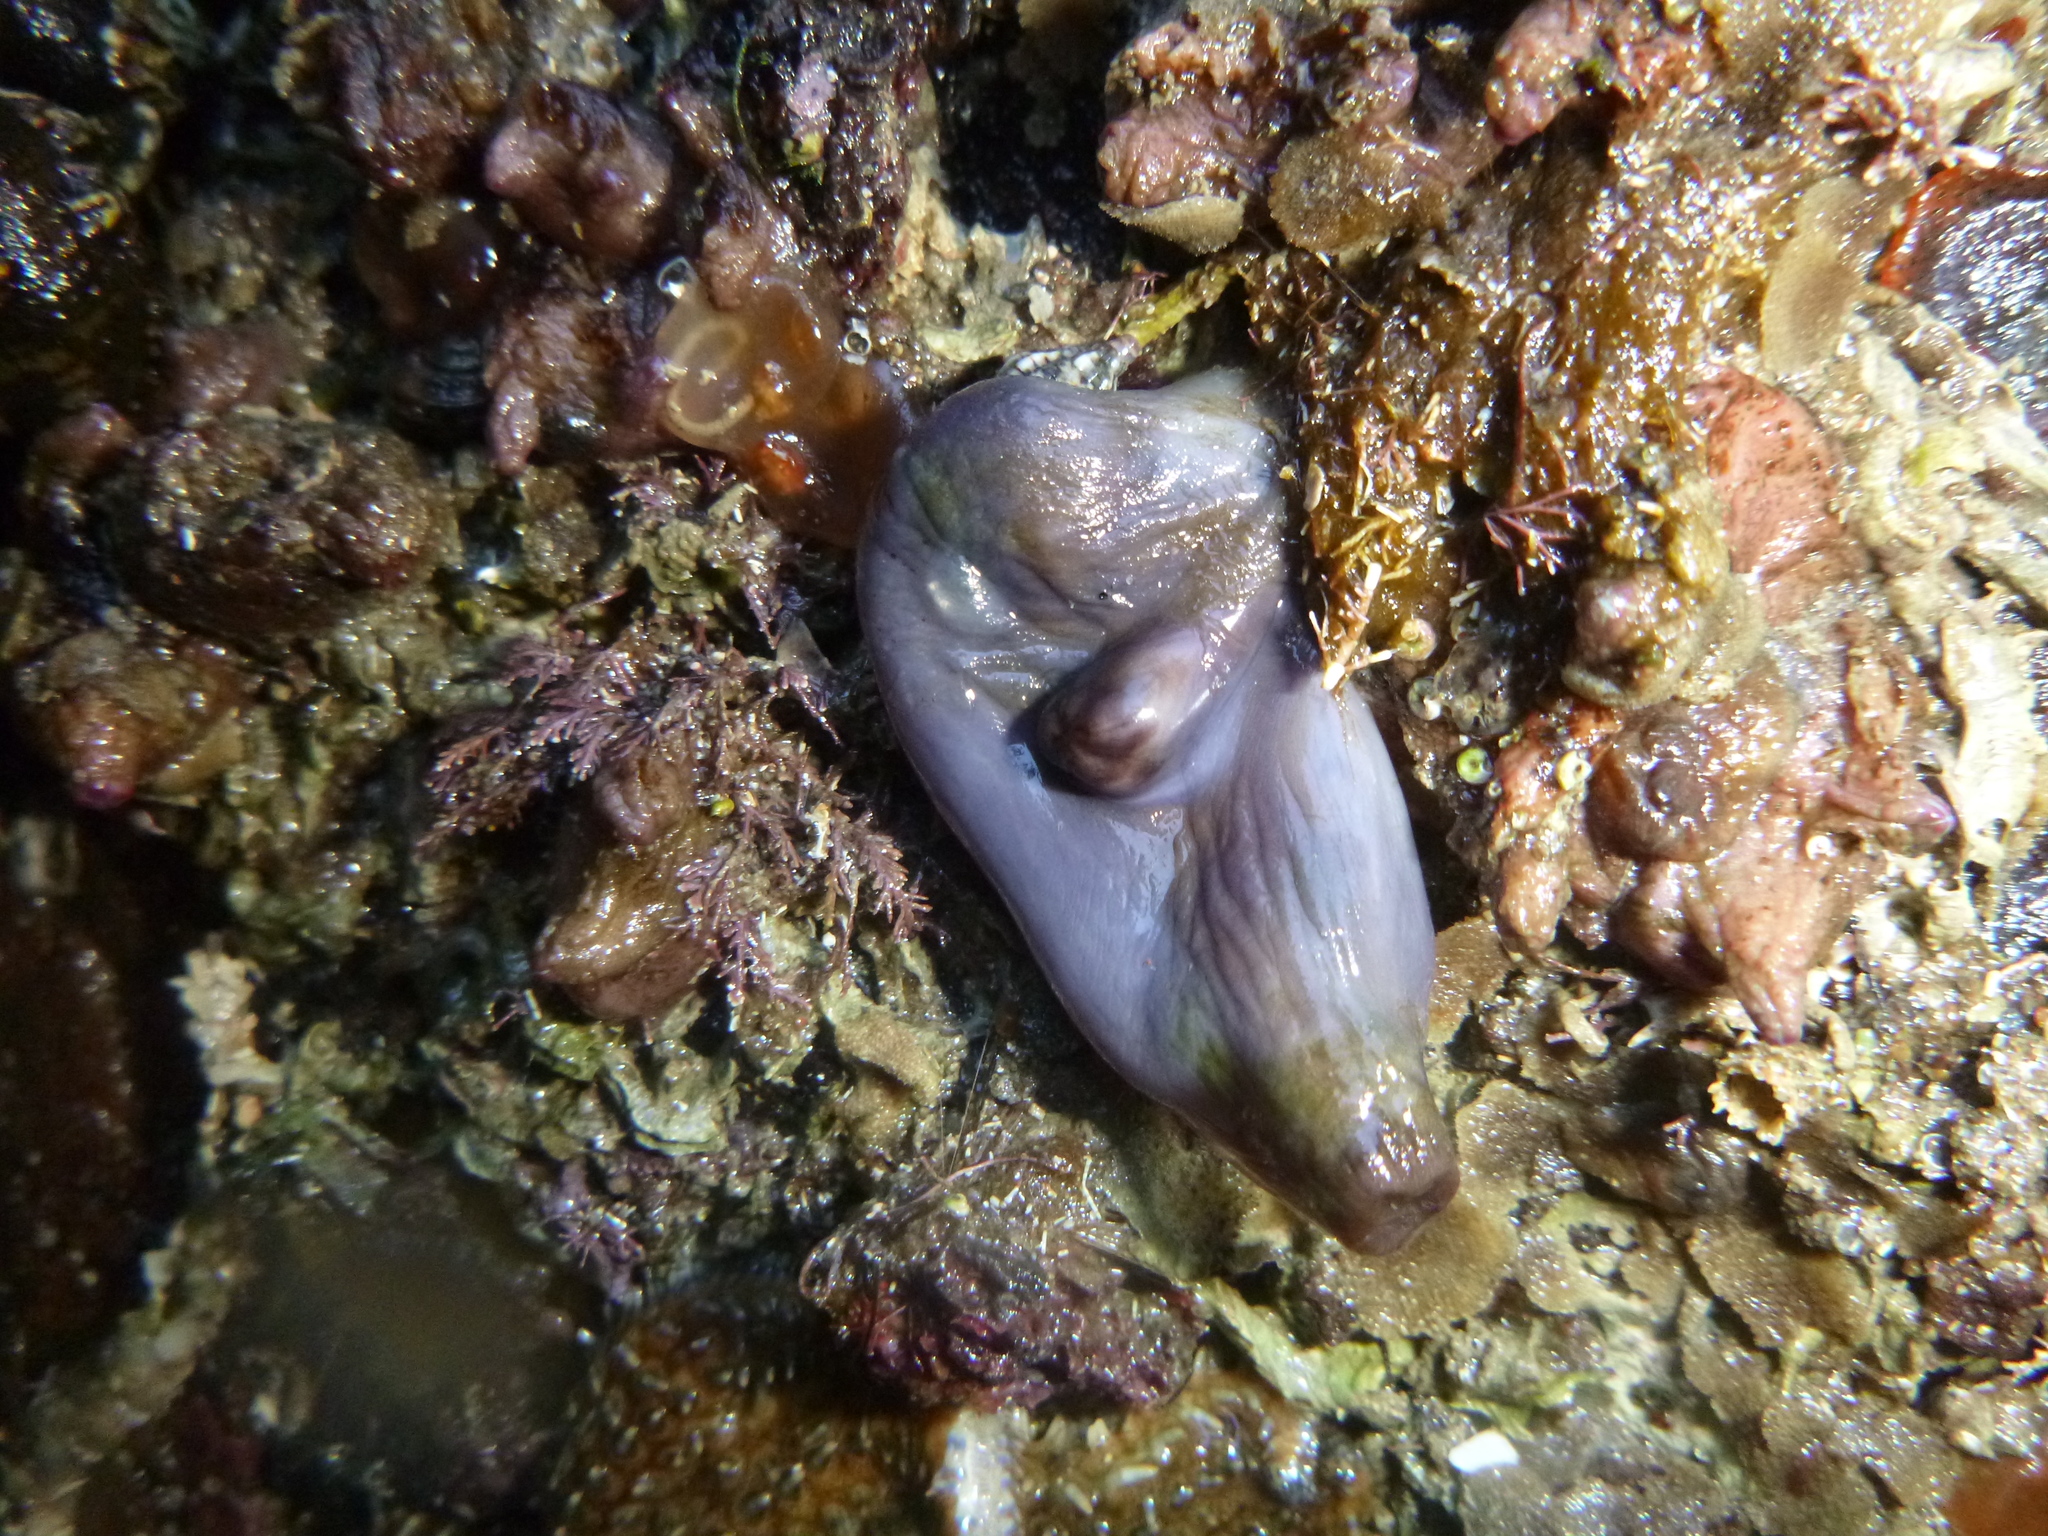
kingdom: Animalia
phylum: Chordata
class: Ascidiacea
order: Stolidobranchia
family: Styelidae
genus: Asterocarpa
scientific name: Asterocarpa coerulea
